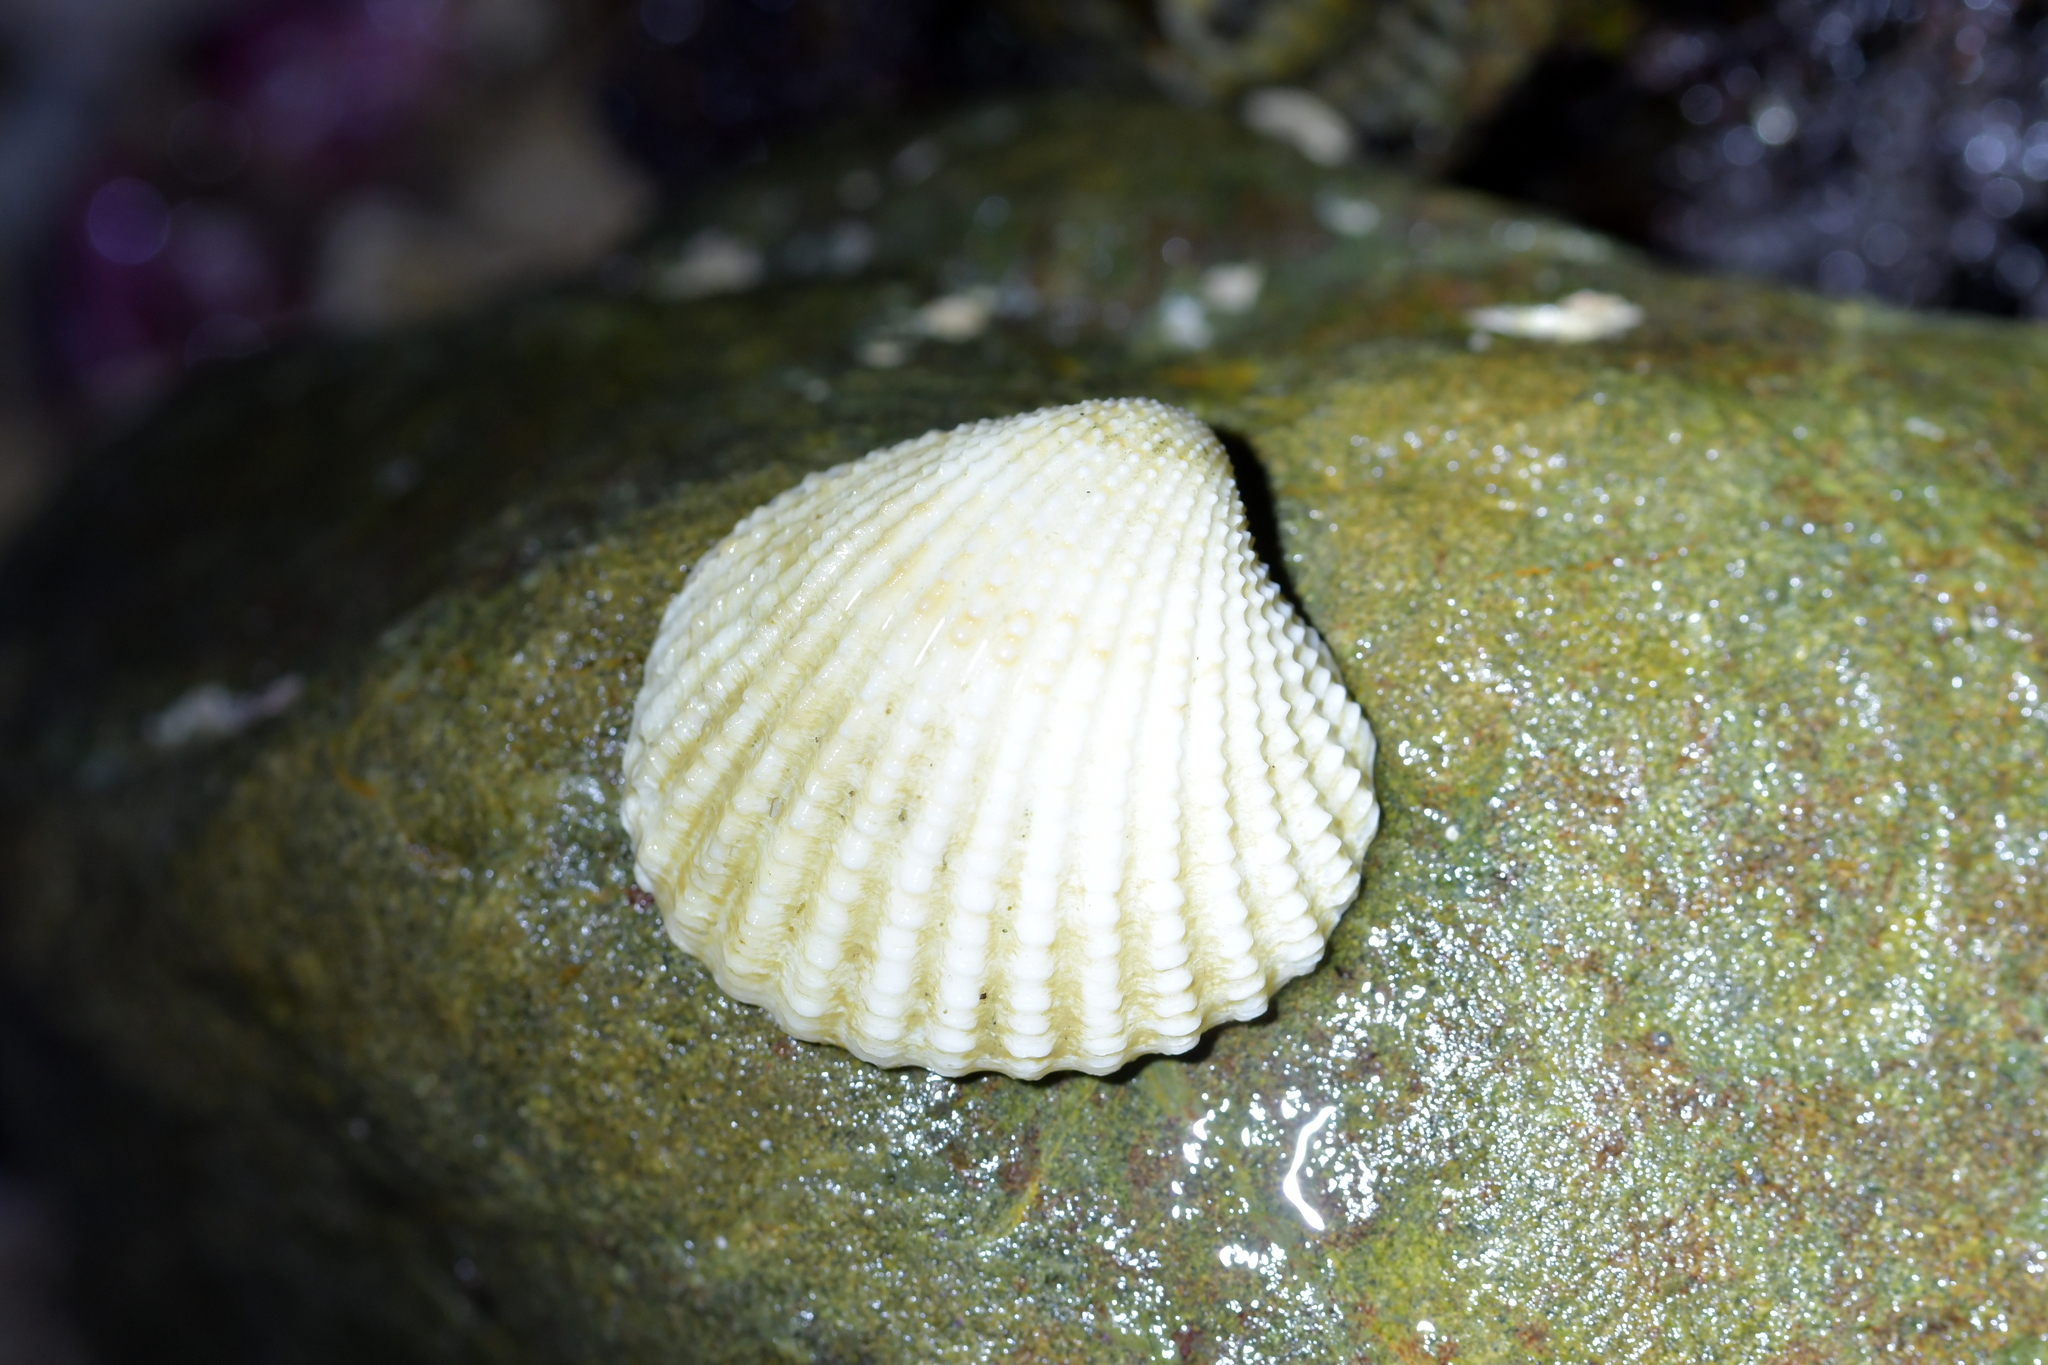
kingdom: Animalia
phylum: Mollusca
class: Bivalvia
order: Carditida
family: Carditidae
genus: Purpurocardia
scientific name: Purpurocardia purpurata
